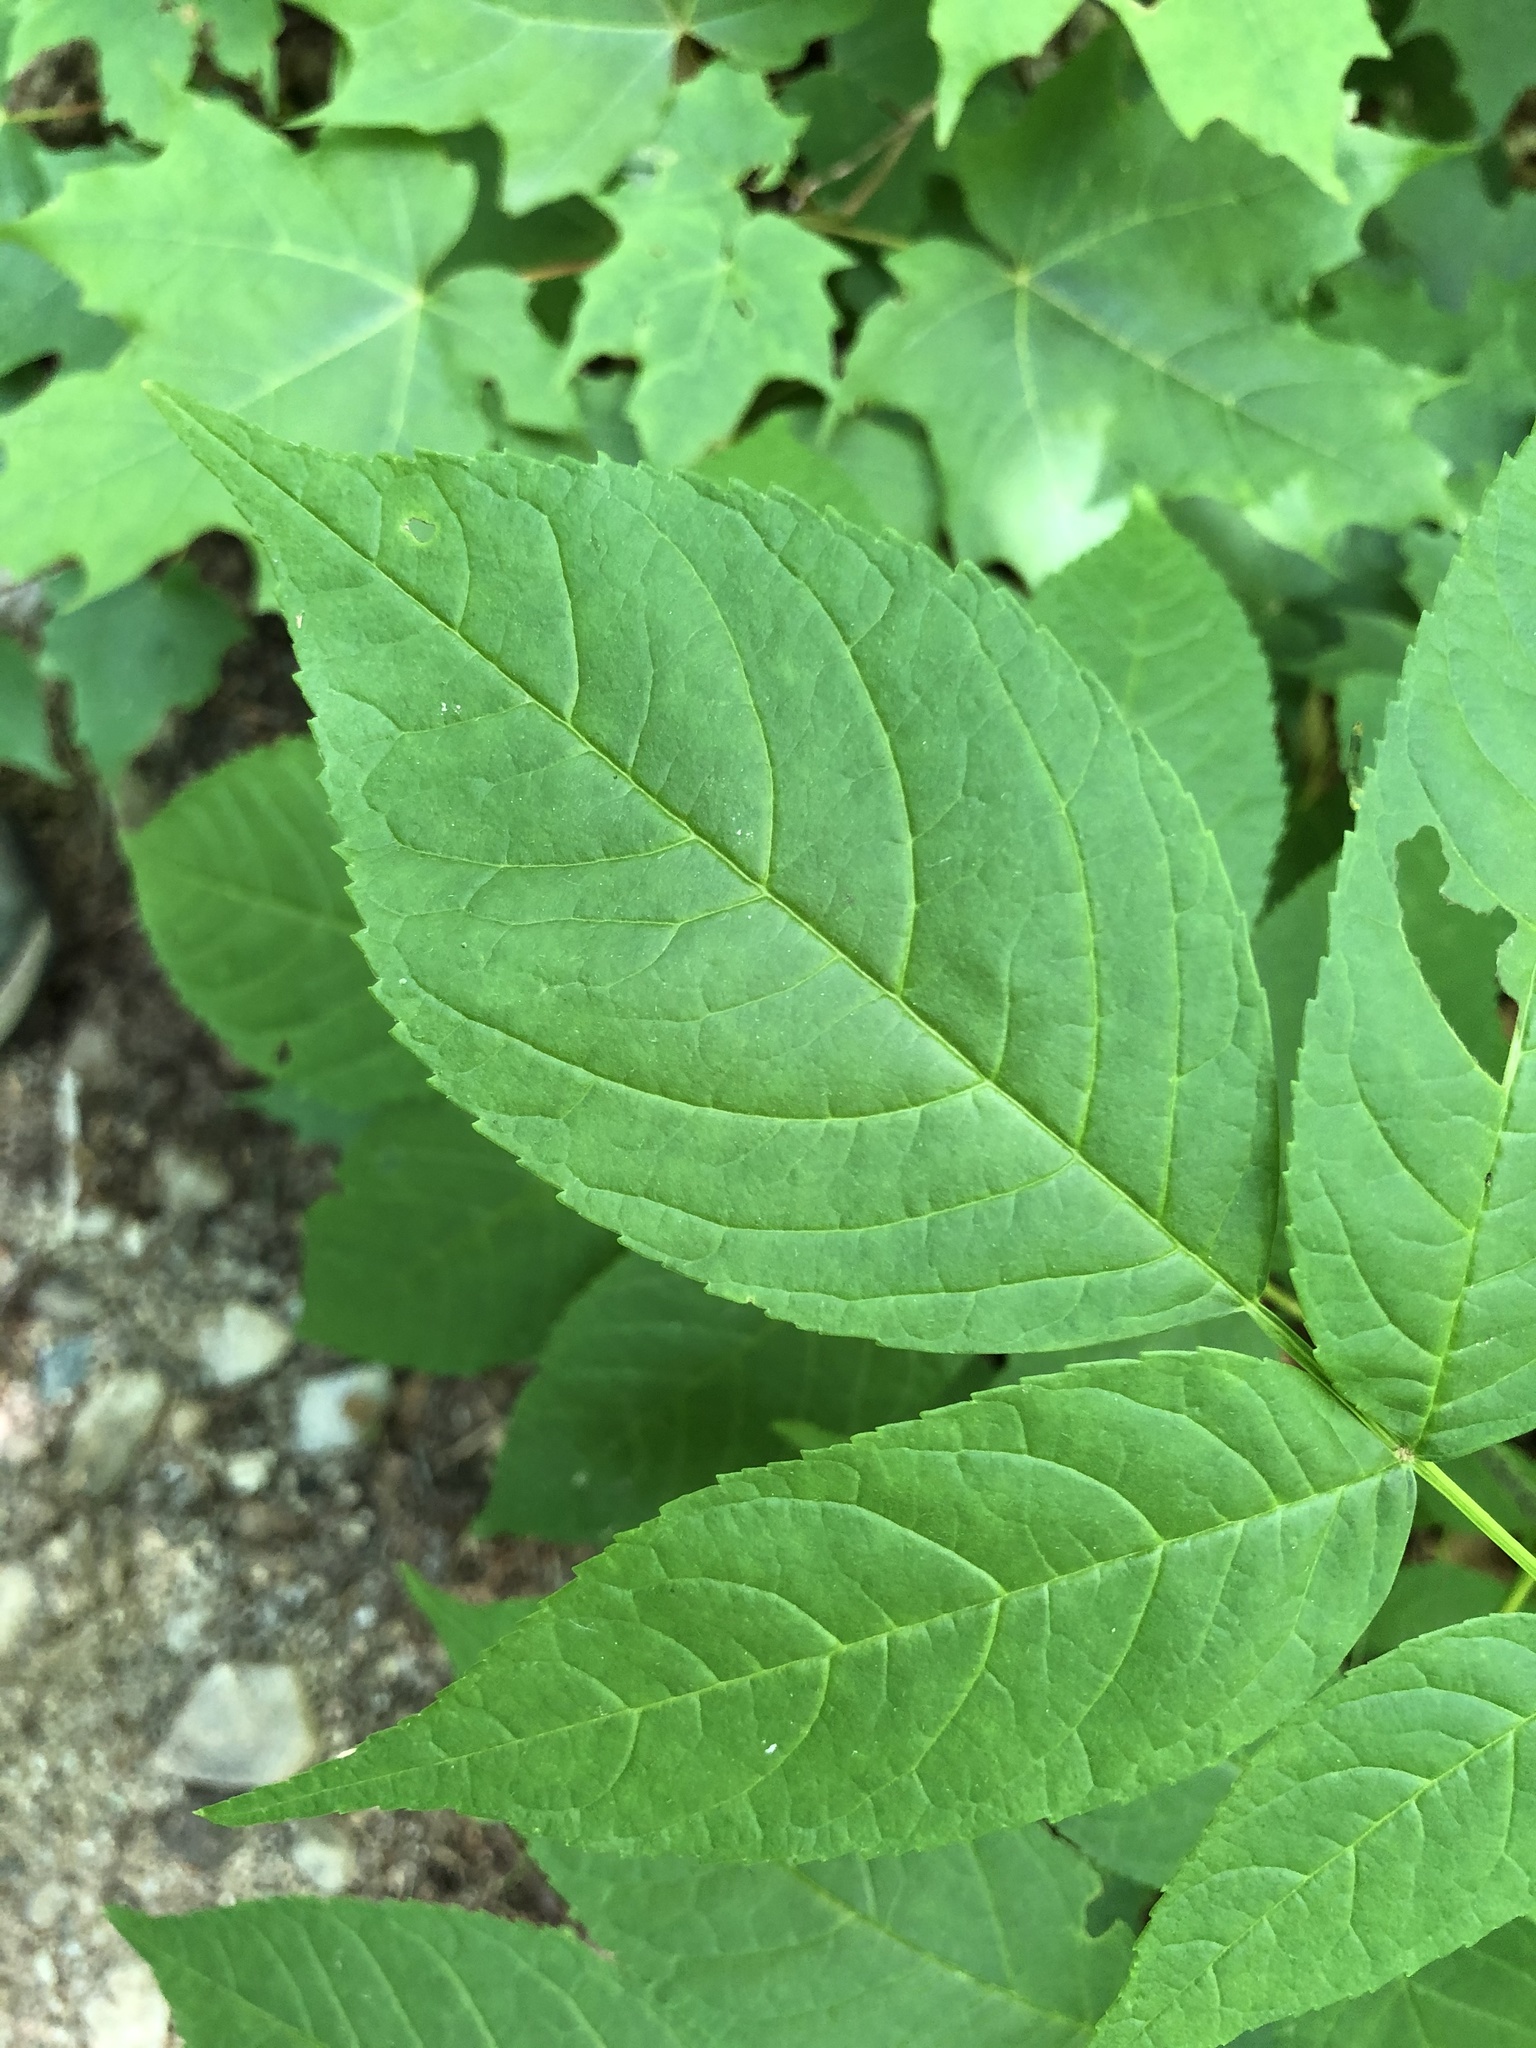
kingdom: Plantae
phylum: Tracheophyta
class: Magnoliopsida
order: Lamiales
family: Oleaceae
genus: Fraxinus
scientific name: Fraxinus nigra
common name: Black ash
